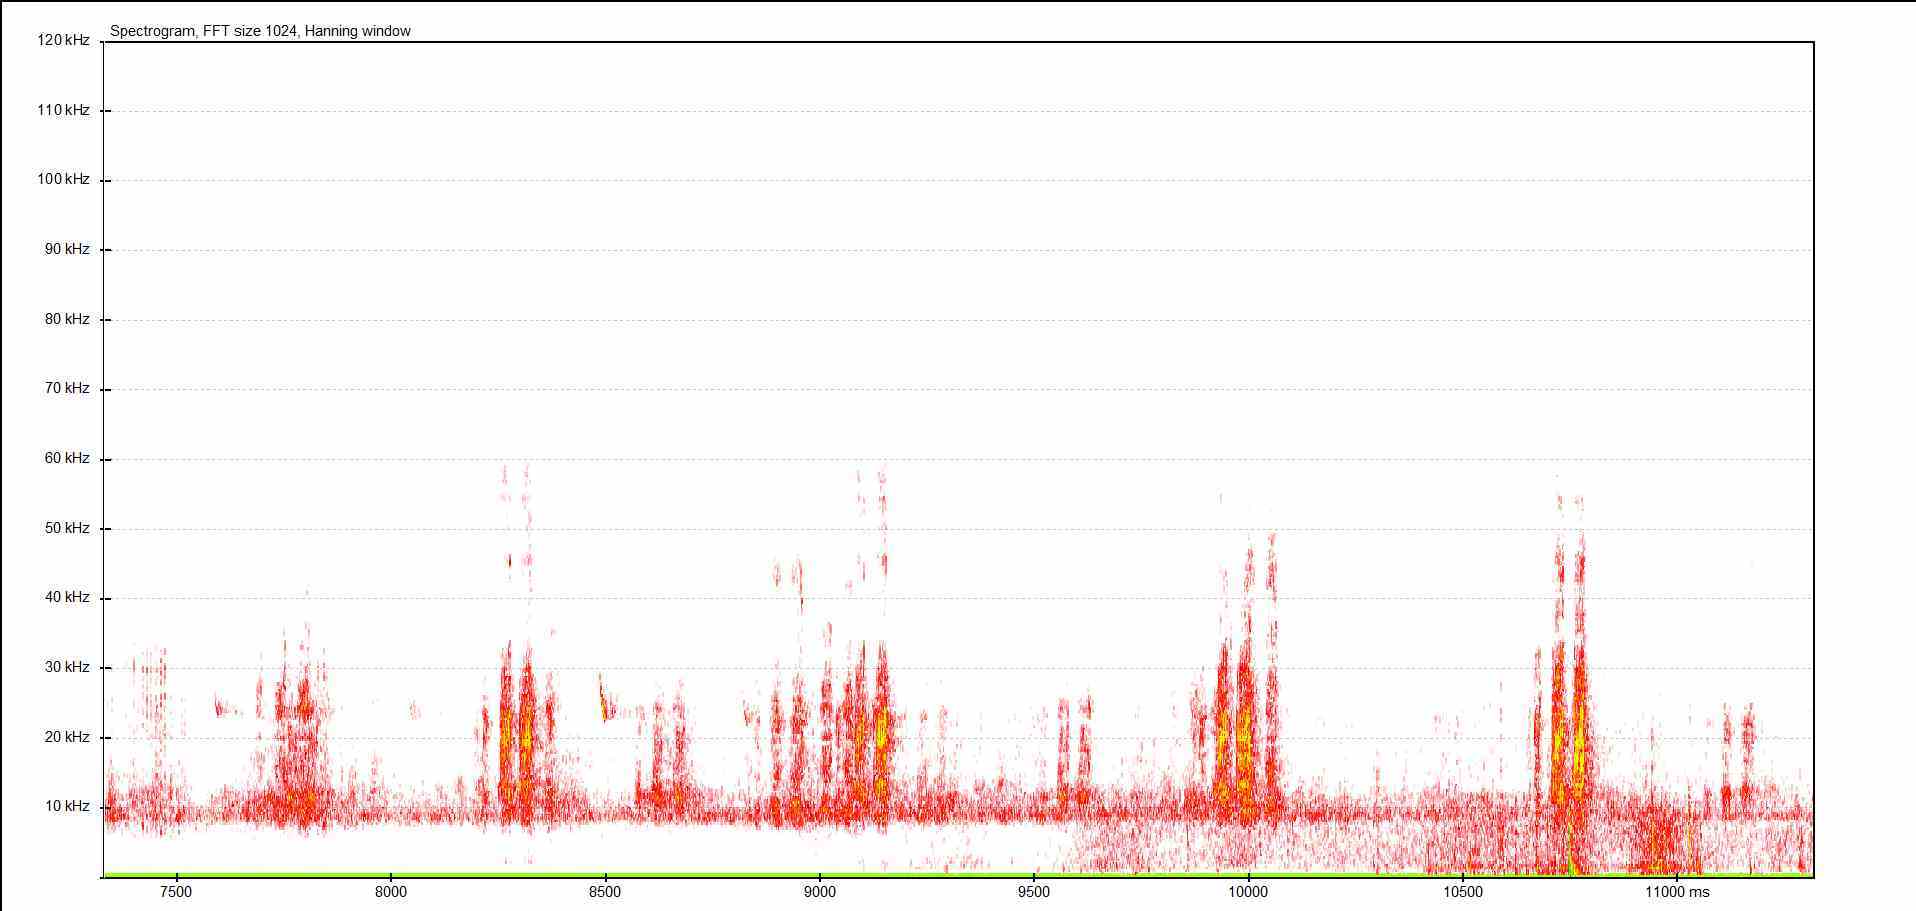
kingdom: Animalia
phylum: Arthropoda
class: Insecta
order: Orthoptera
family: Tettigoniidae
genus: Pholidoptera
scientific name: Pholidoptera griseoaptera
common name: Dark bush-cricket
